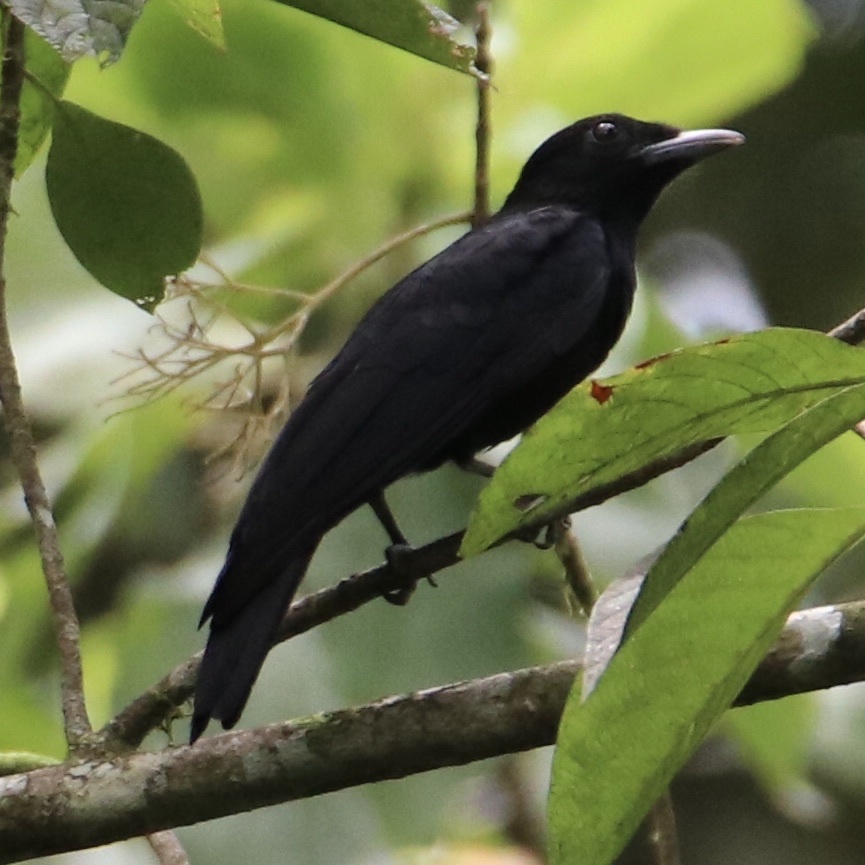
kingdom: Animalia
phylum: Chordata
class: Aves
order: Passeriformes
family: Cotingidae
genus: Querula
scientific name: Querula purpurata
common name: Purple-throated fruitcrow
